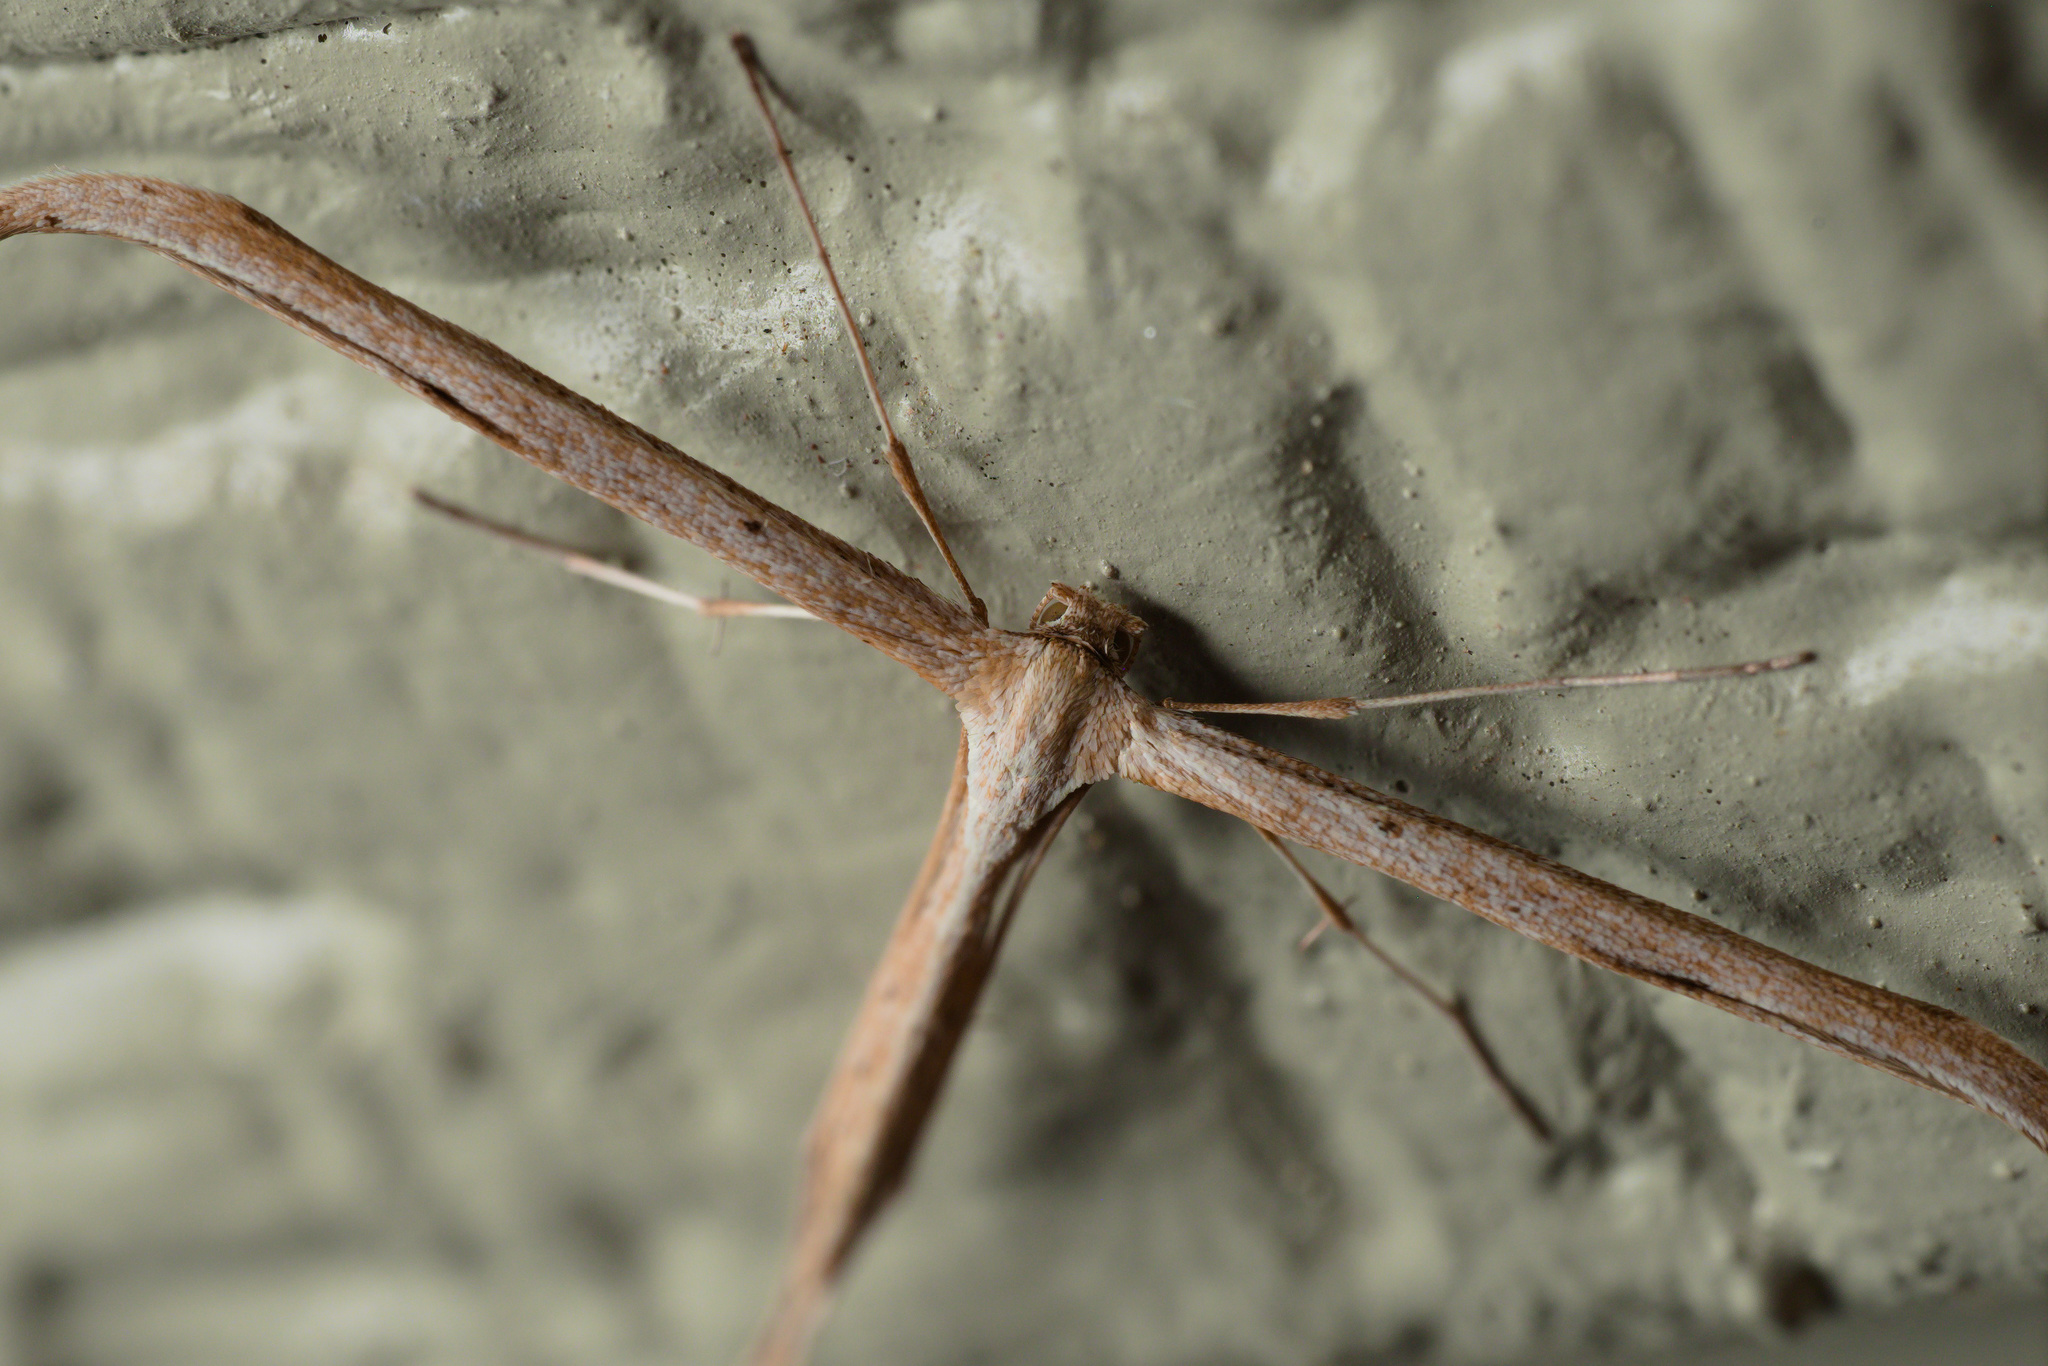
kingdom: Animalia
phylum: Arthropoda
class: Insecta
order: Lepidoptera
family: Pterophoridae
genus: Emmelina
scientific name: Emmelina monodactyla
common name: Common plume
